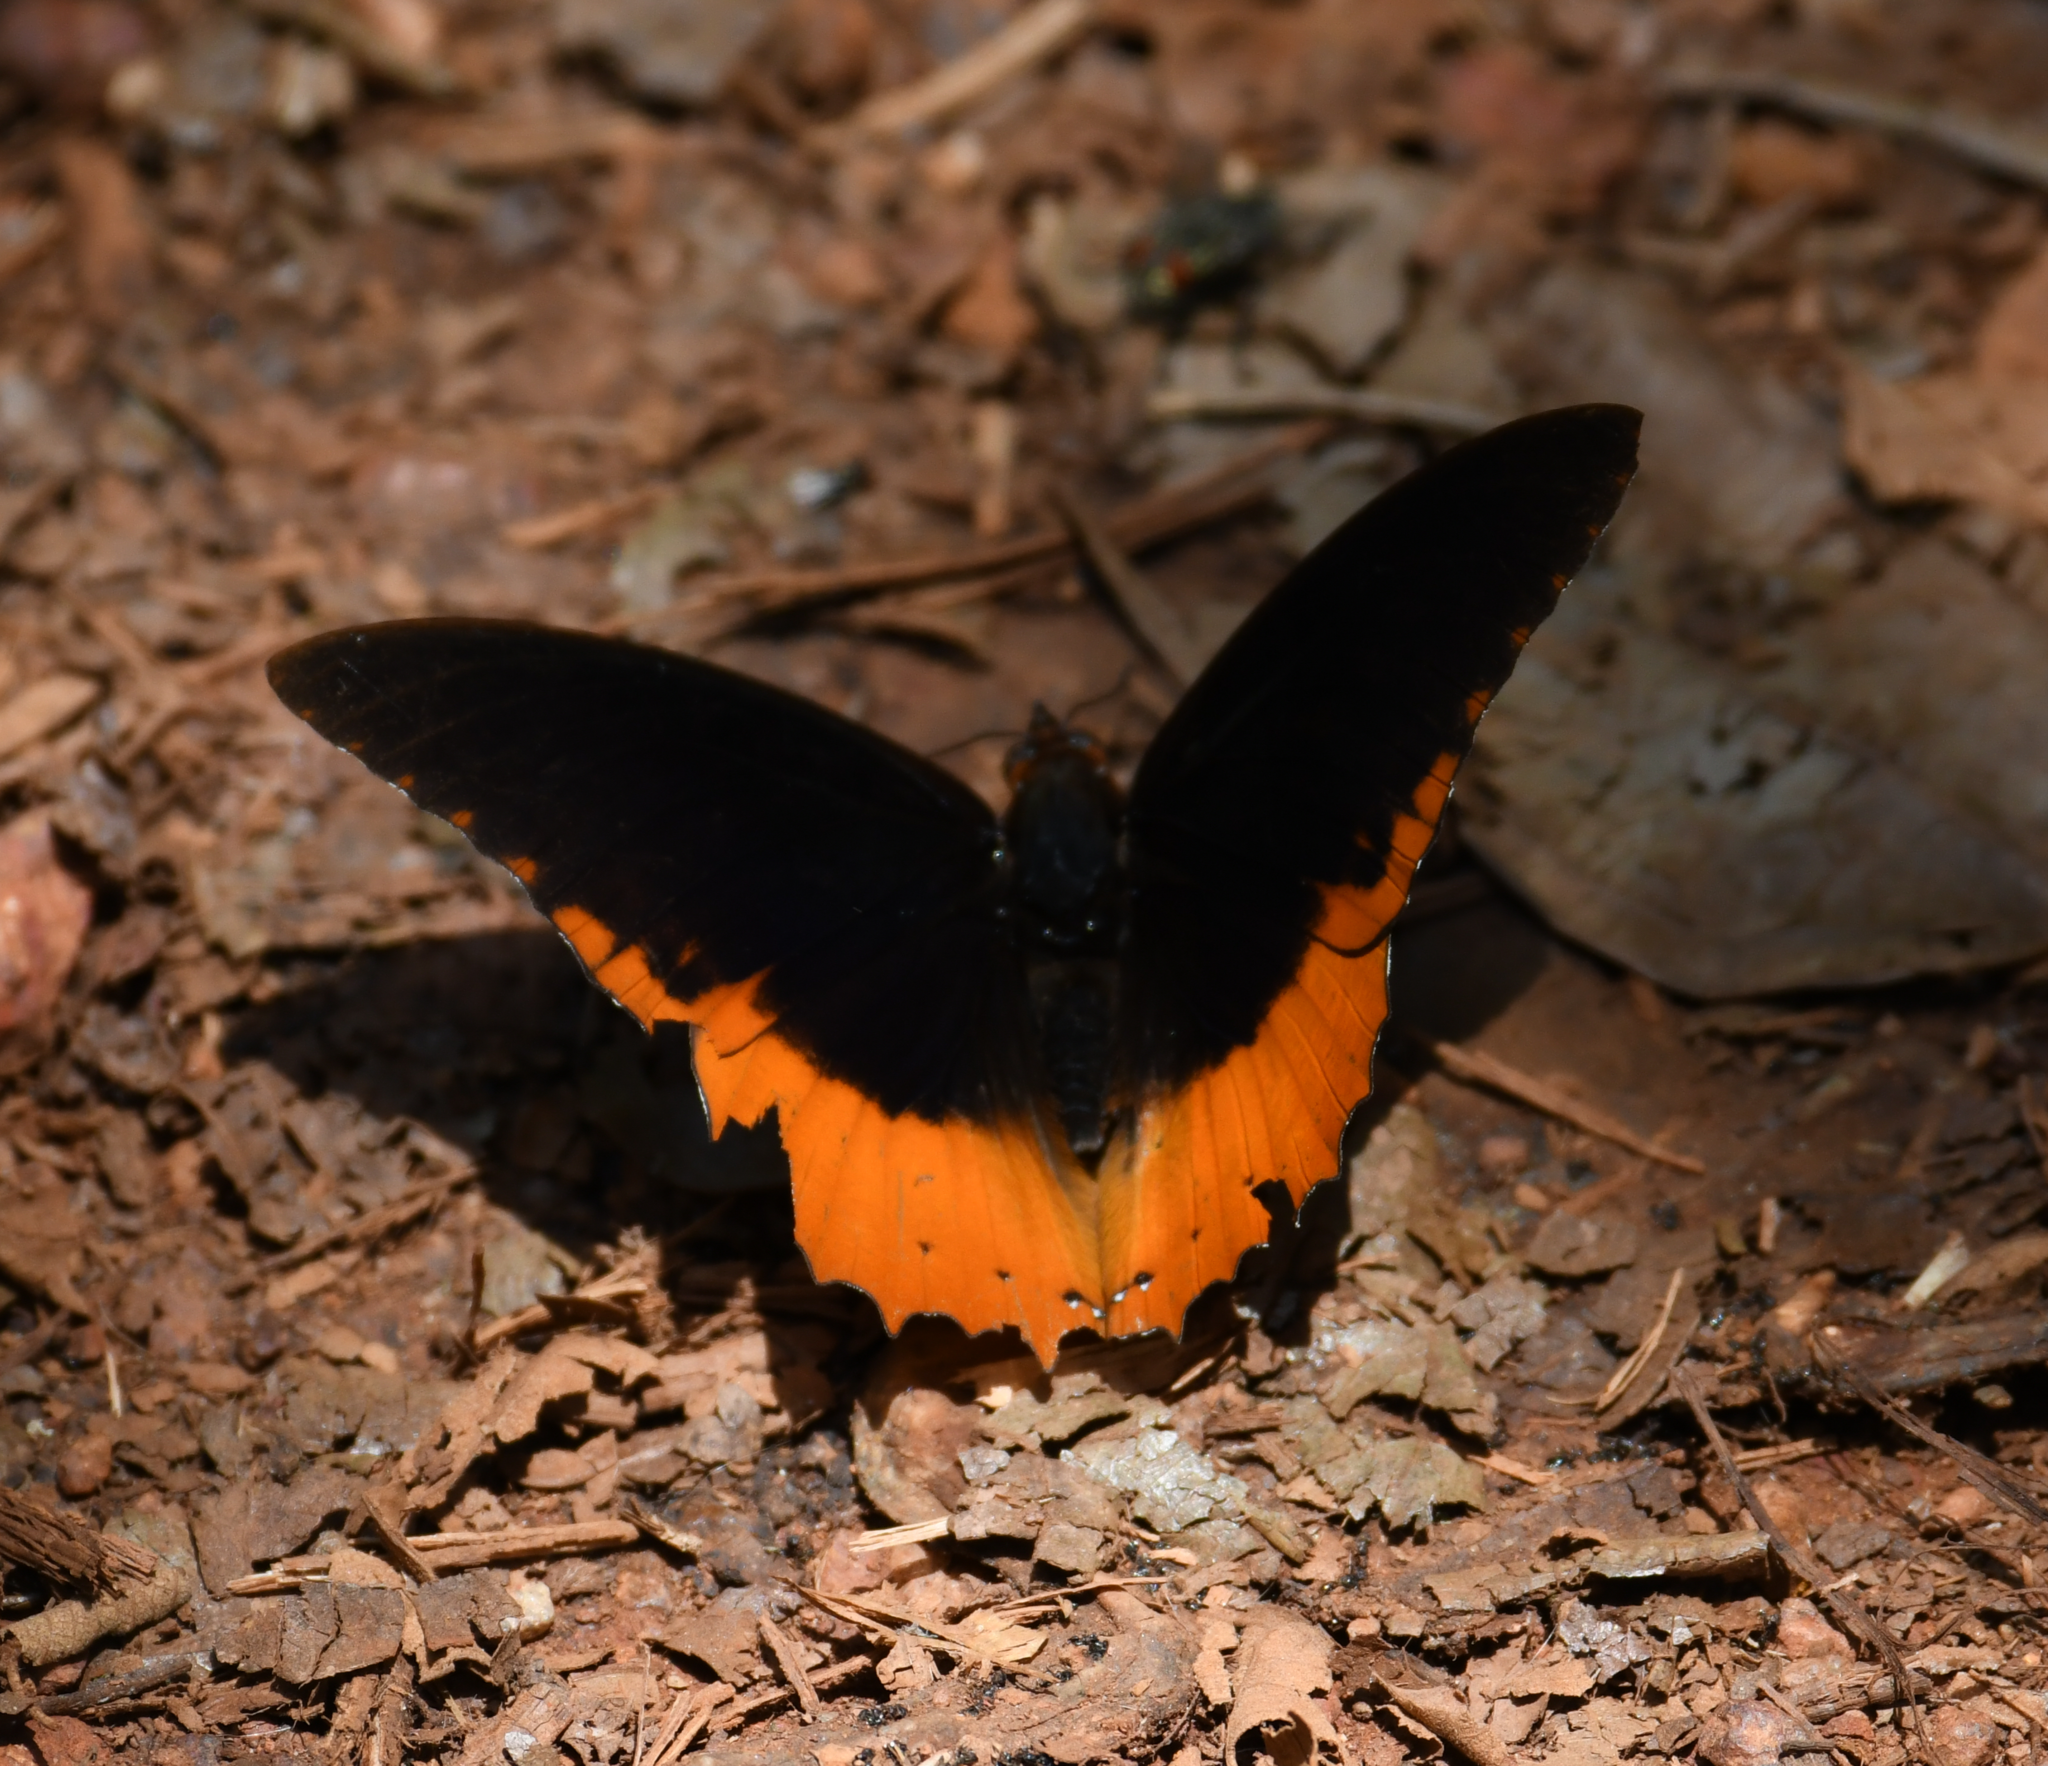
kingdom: Animalia
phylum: Arthropoda
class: Insecta
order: Lepidoptera
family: Nymphalidae
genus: Charaxes
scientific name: Charaxes protoclea
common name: Flame-bordered charaxes
